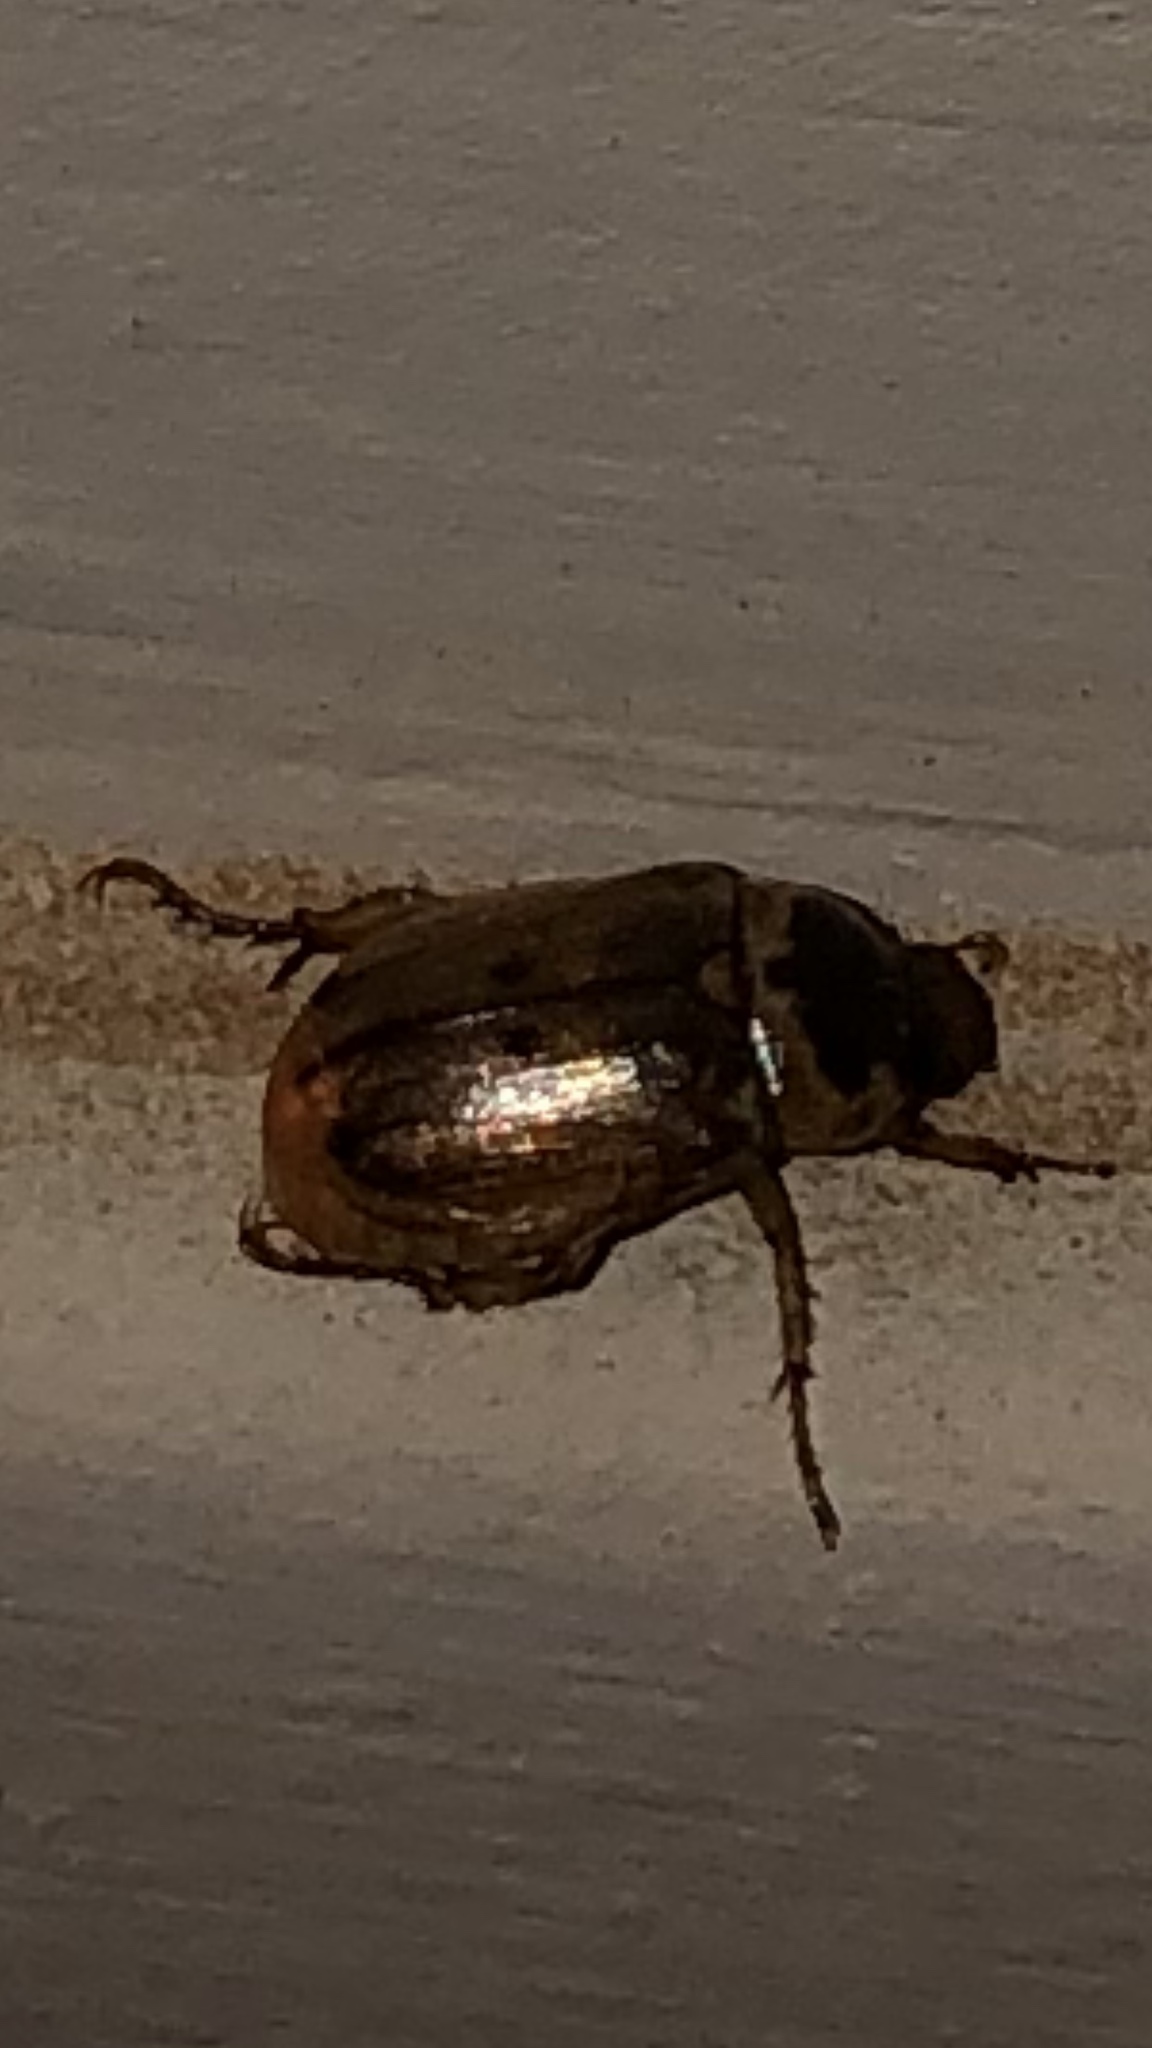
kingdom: Animalia
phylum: Arthropoda
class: Insecta
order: Coleoptera
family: Scarabaeidae
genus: Paranomala
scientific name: Paranomala undulata
